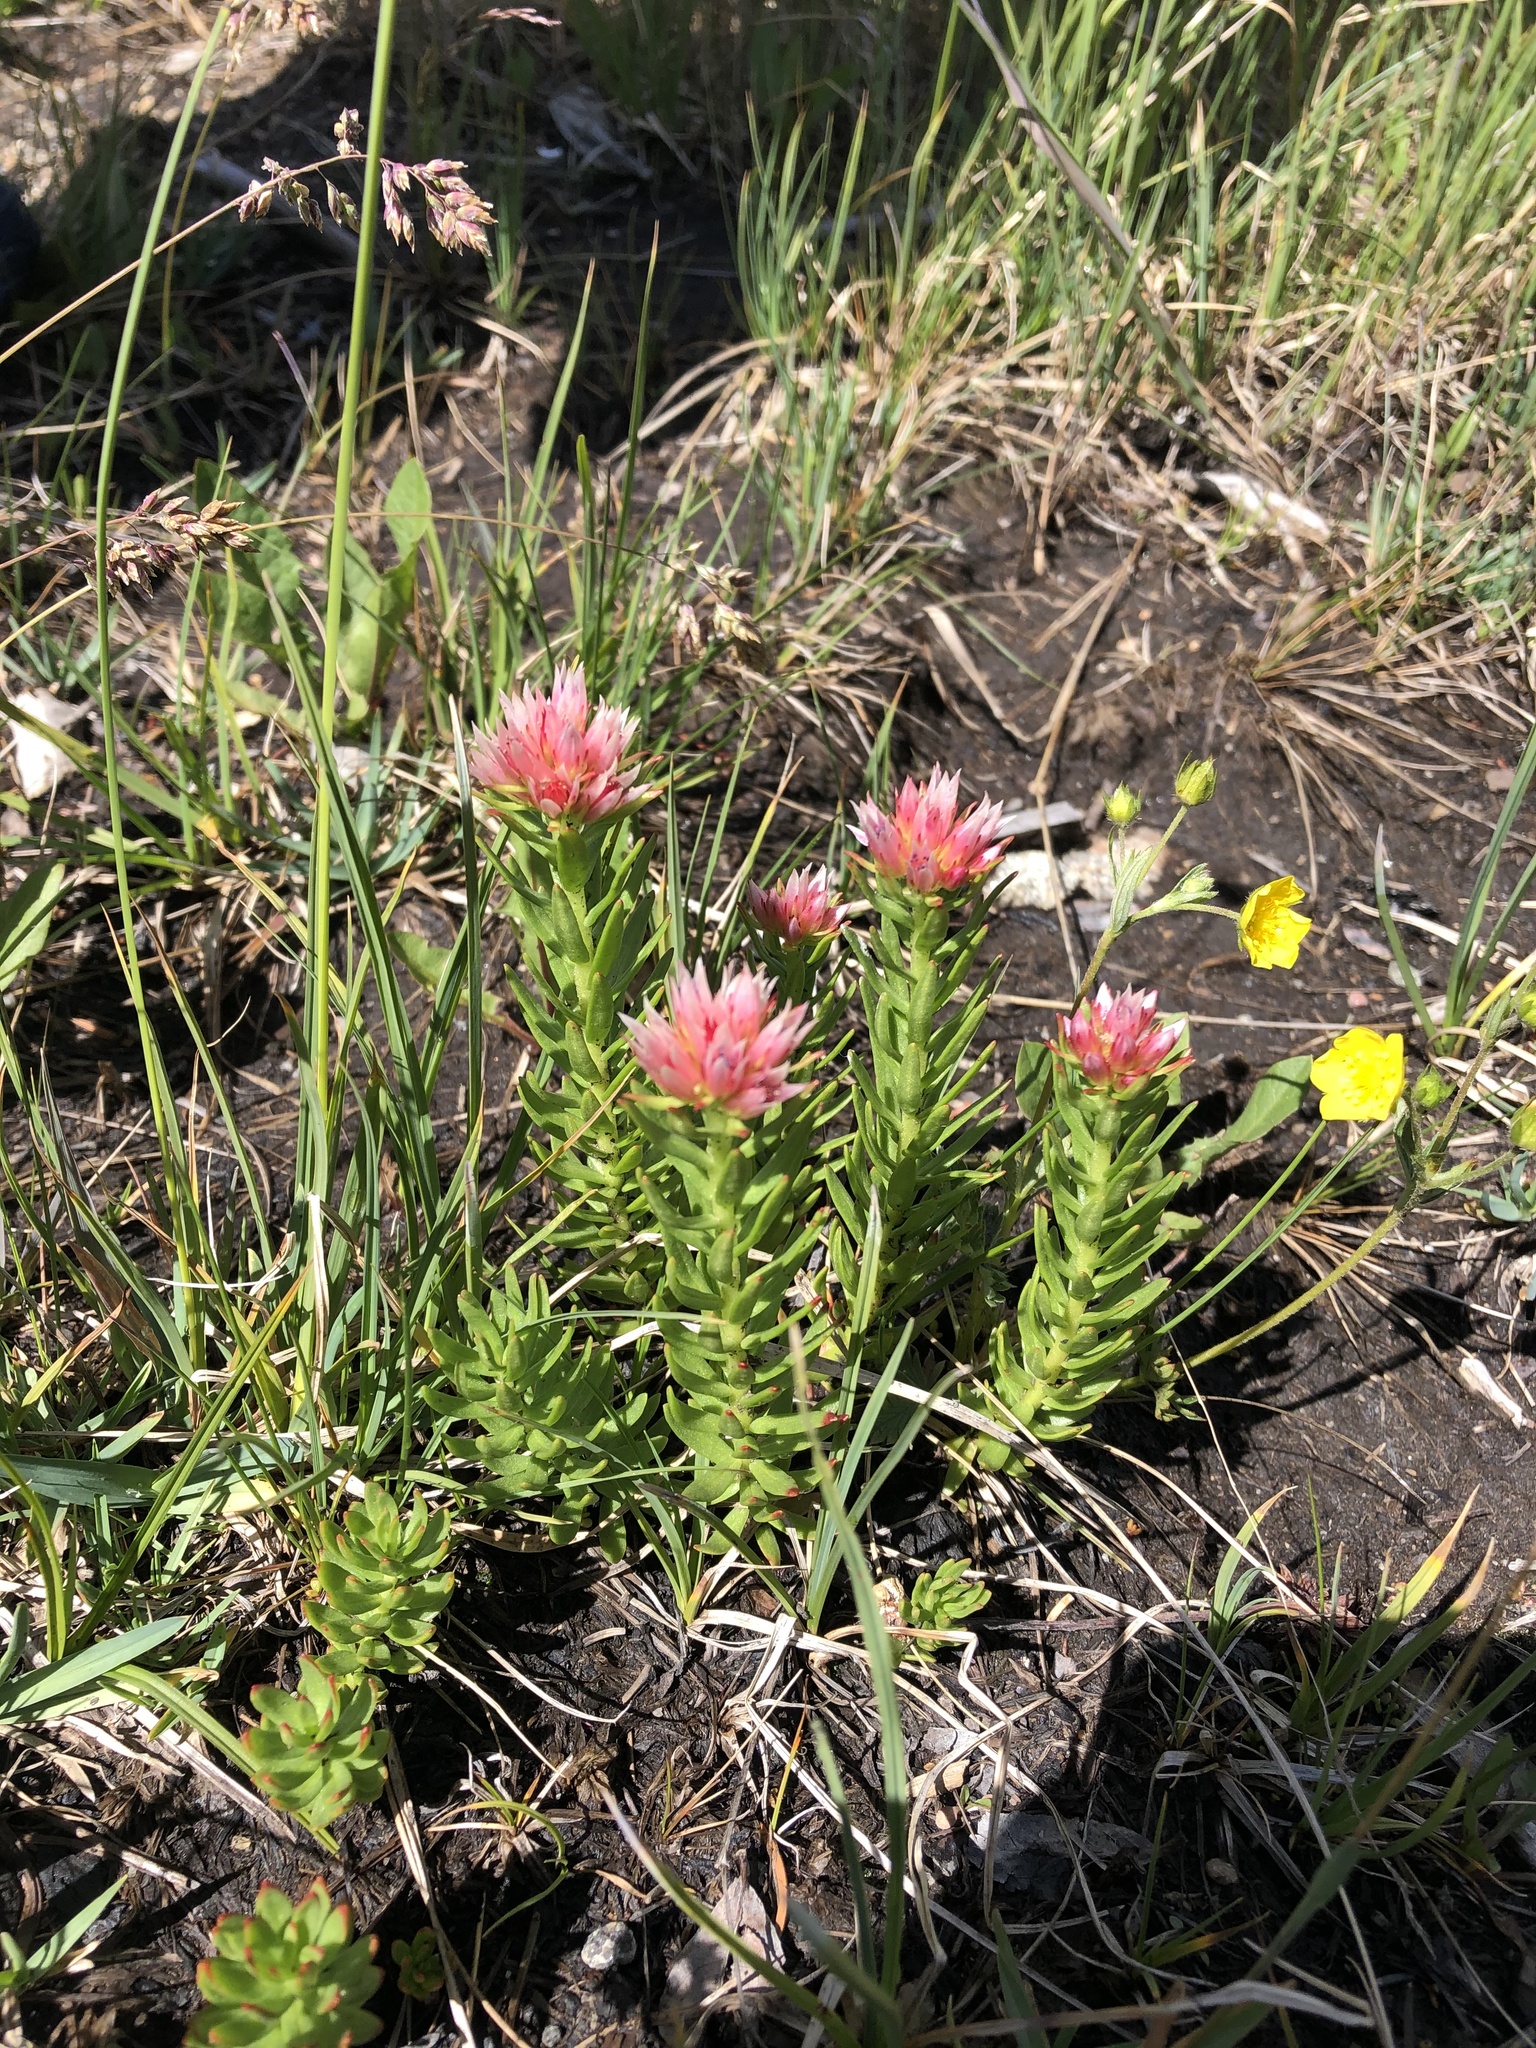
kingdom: Plantae
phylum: Tracheophyta
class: Magnoliopsida
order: Saxifragales
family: Crassulaceae
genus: Rhodiola
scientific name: Rhodiola rhodantha
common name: Red orpine
